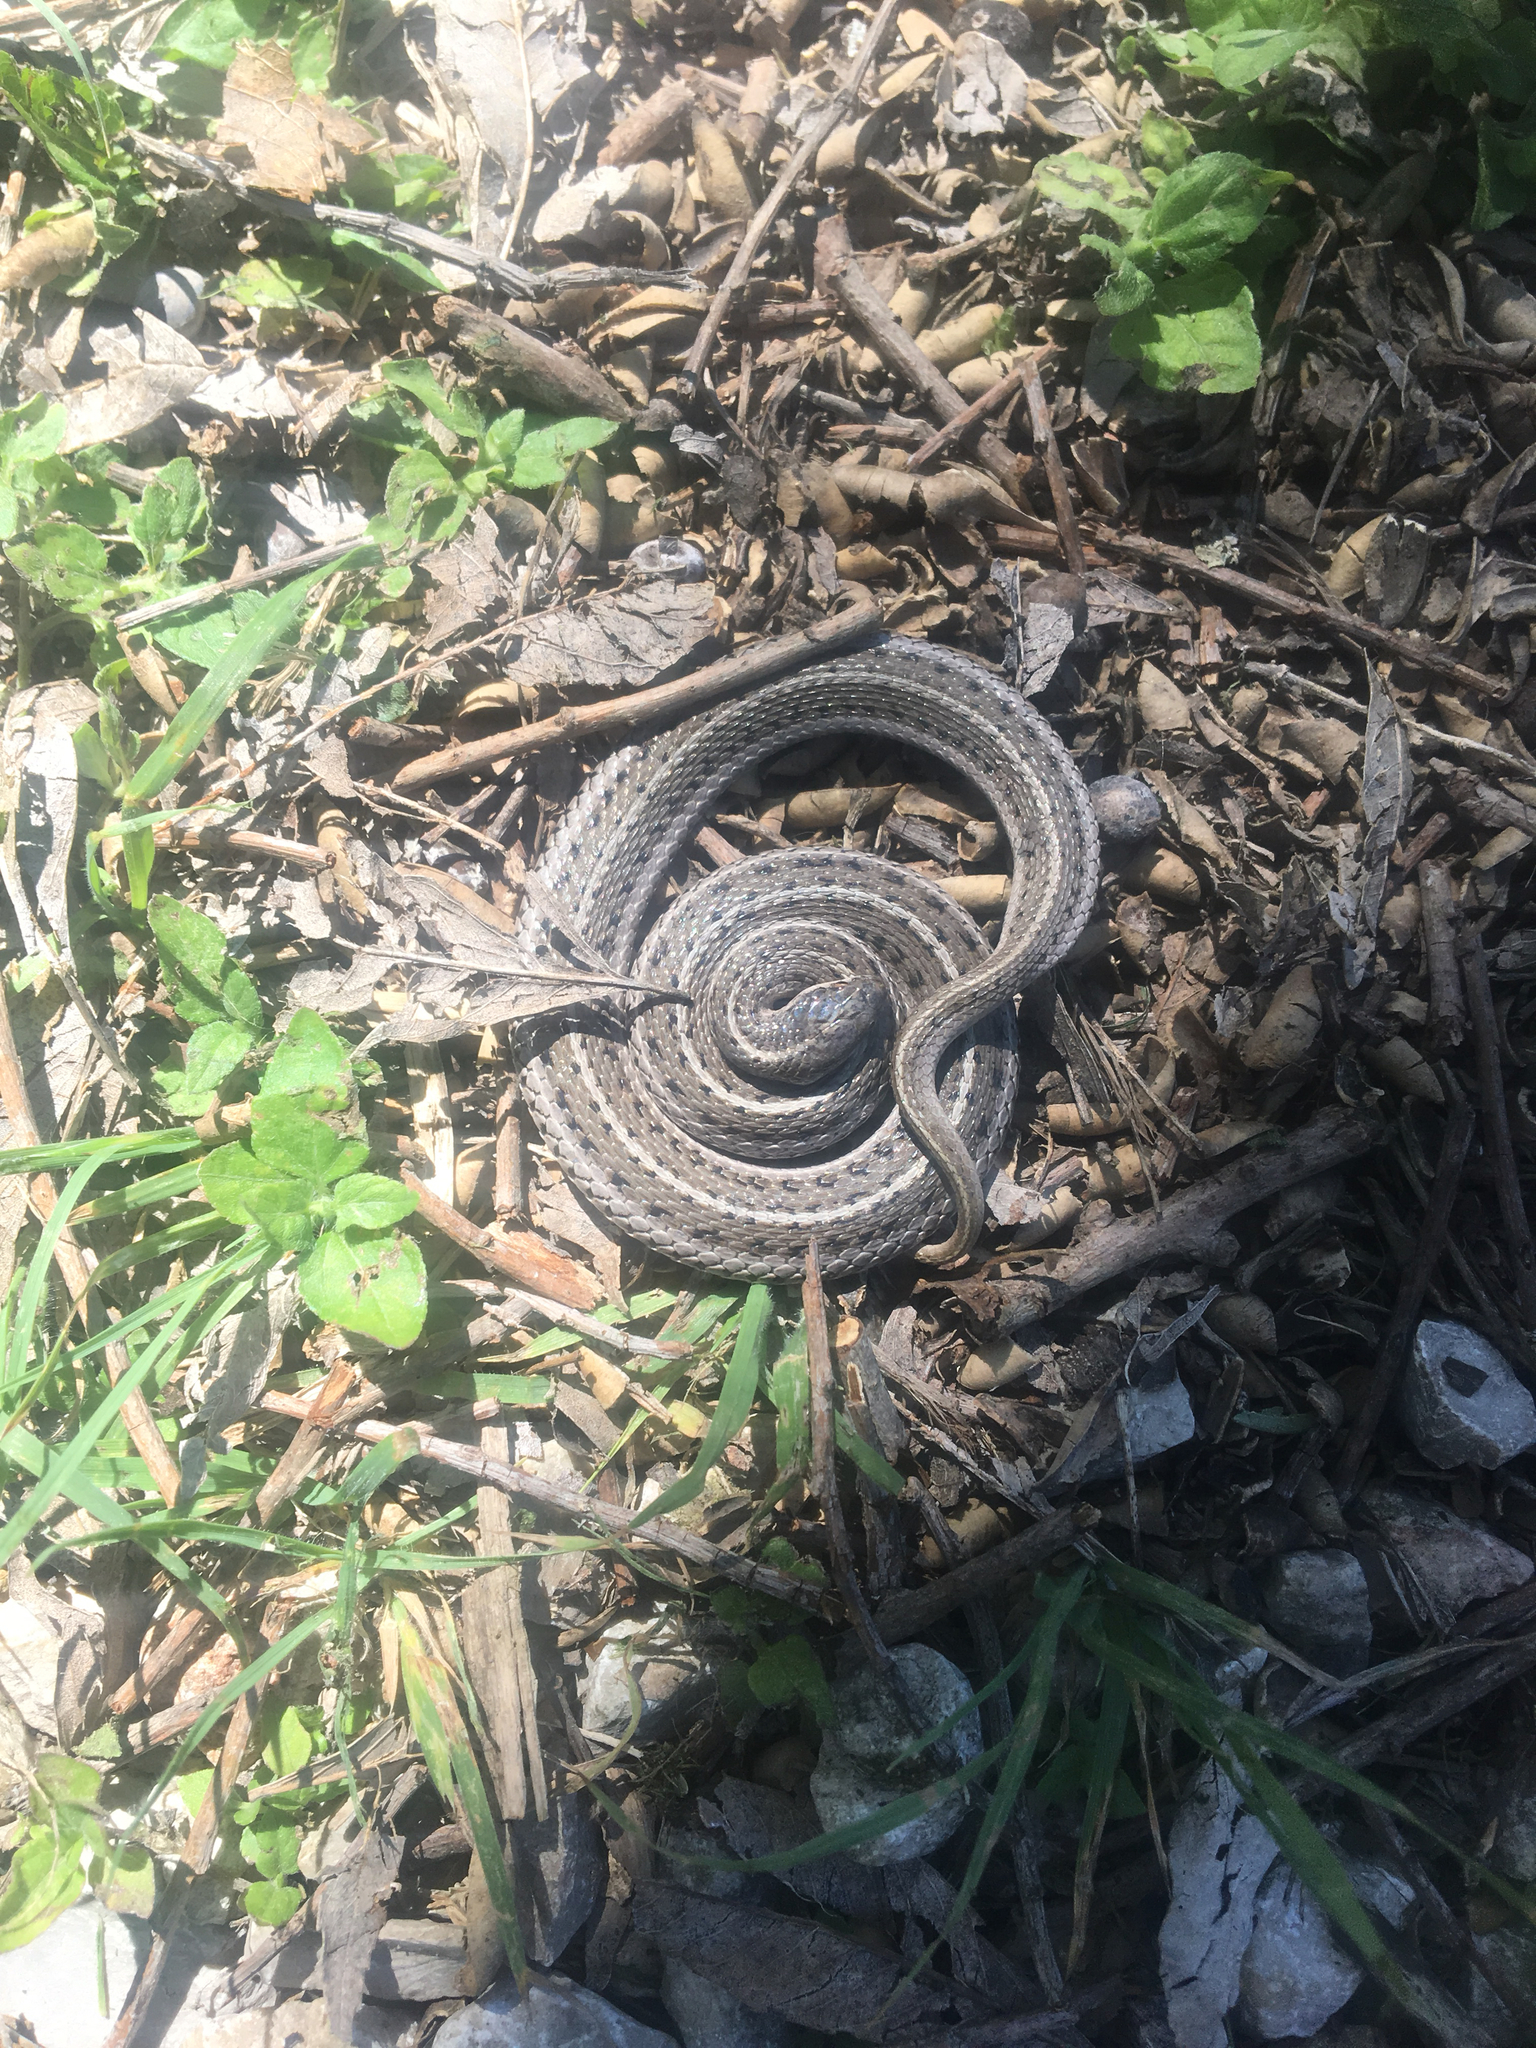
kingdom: Animalia
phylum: Chordata
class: Squamata
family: Colubridae
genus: Tropidoclonion
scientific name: Tropidoclonion lineatum
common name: Lined snake
